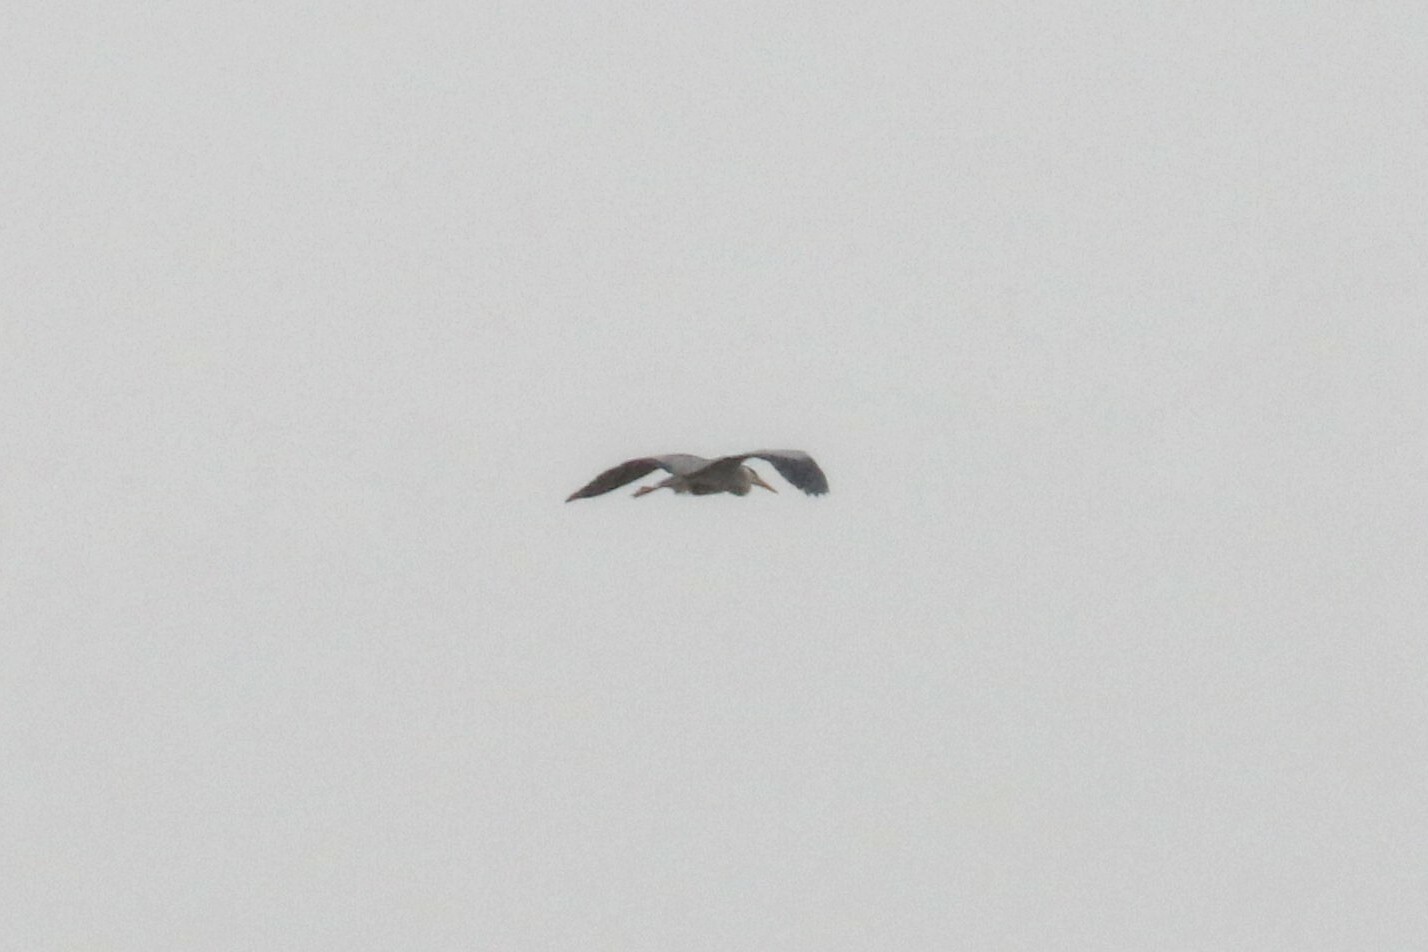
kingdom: Animalia
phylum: Chordata
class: Aves
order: Pelecaniformes
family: Ardeidae
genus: Ardea
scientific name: Ardea cinerea
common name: Grey heron
